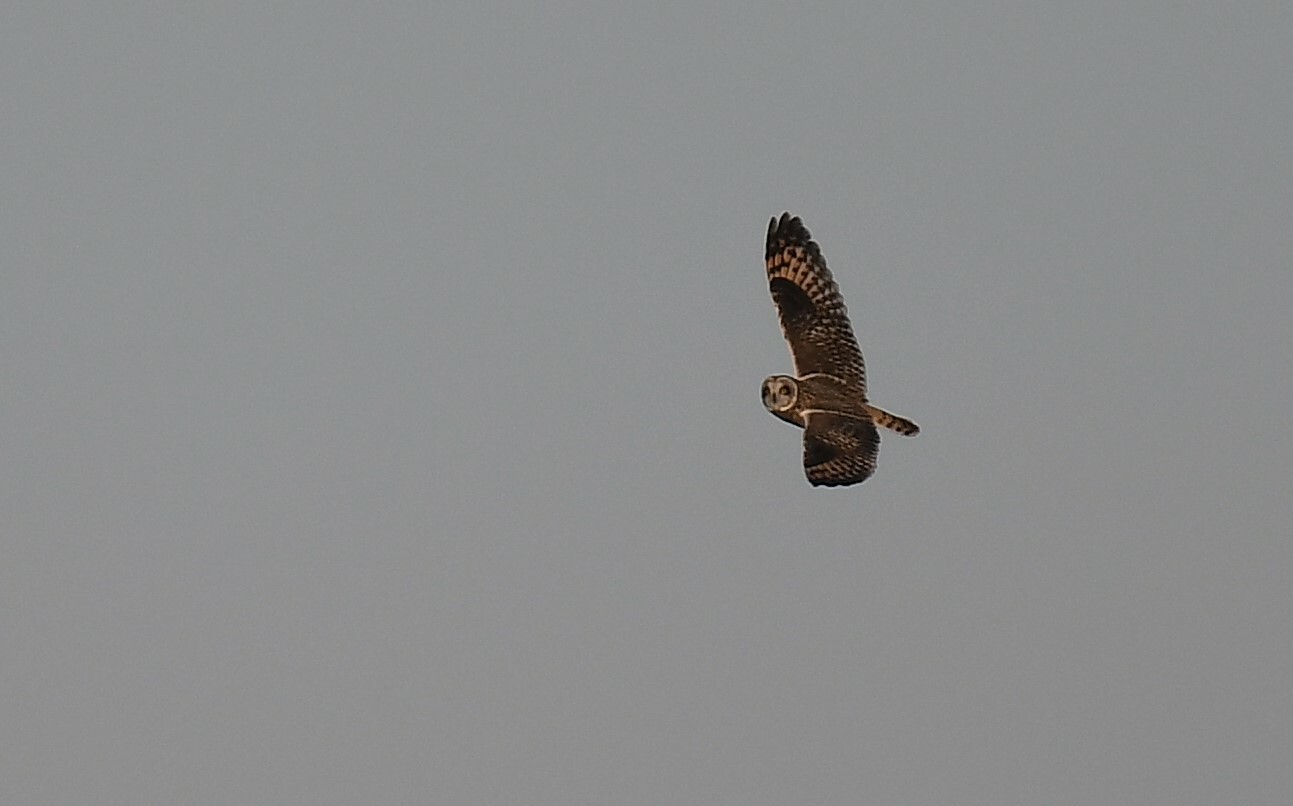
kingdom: Animalia
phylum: Chordata
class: Aves
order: Strigiformes
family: Strigidae
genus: Asio
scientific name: Asio flammeus
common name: Short-eared owl
